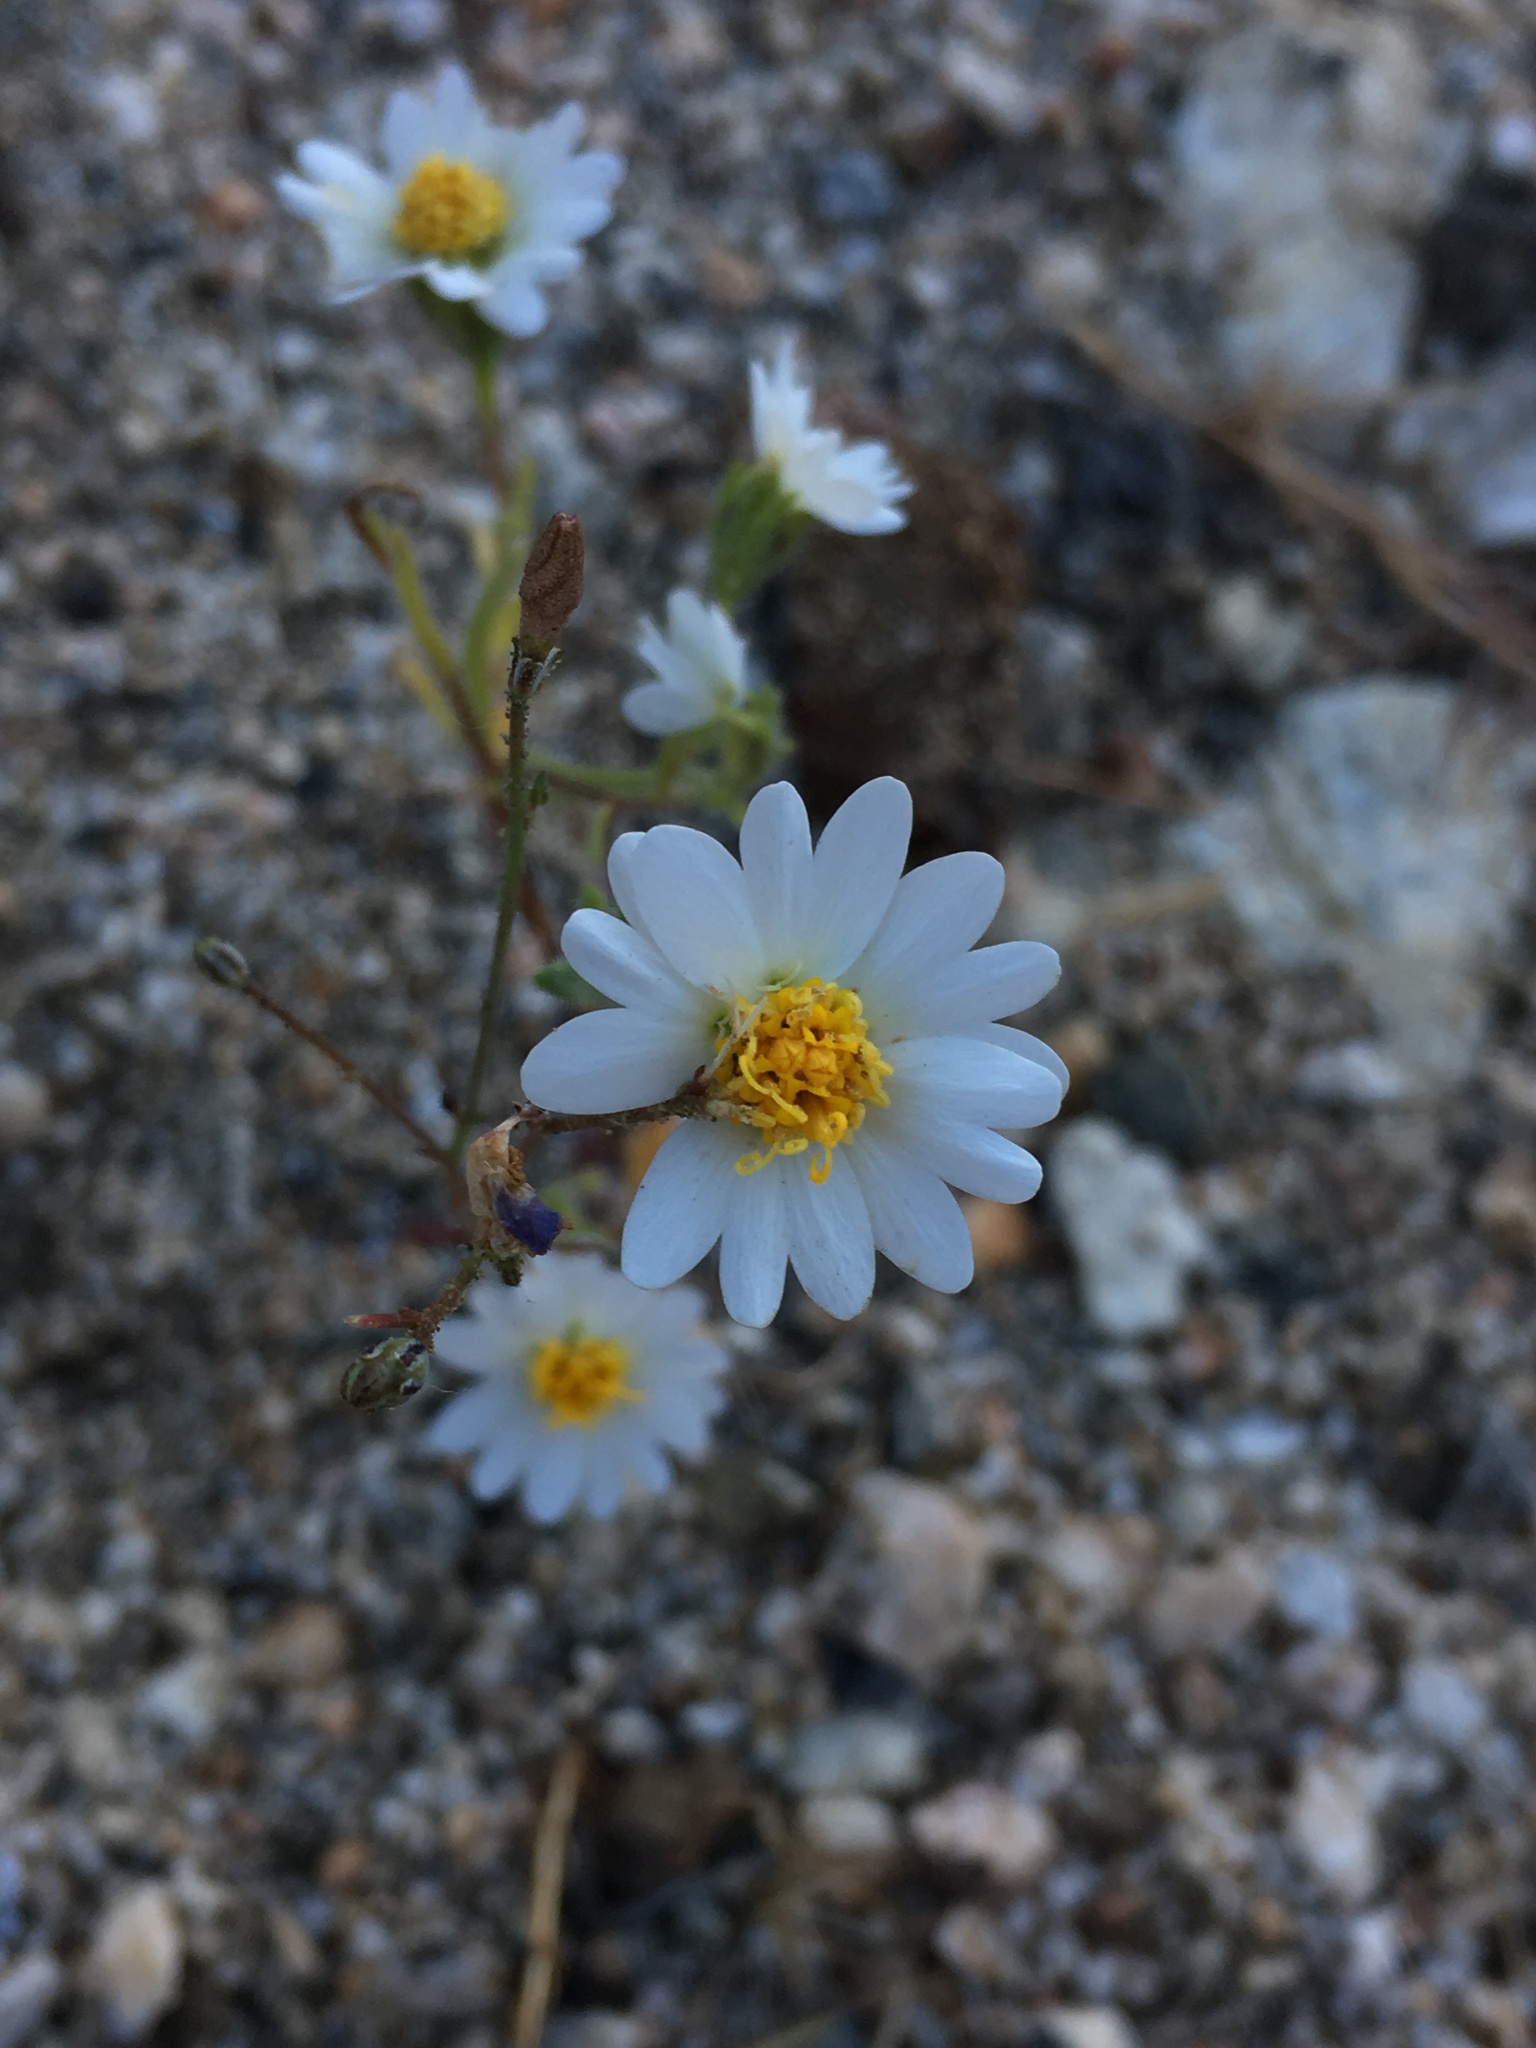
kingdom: Plantae
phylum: Tracheophyta
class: Magnoliopsida
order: Asterales
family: Asteraceae
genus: Layia
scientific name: Layia glandulosa
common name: White layia
